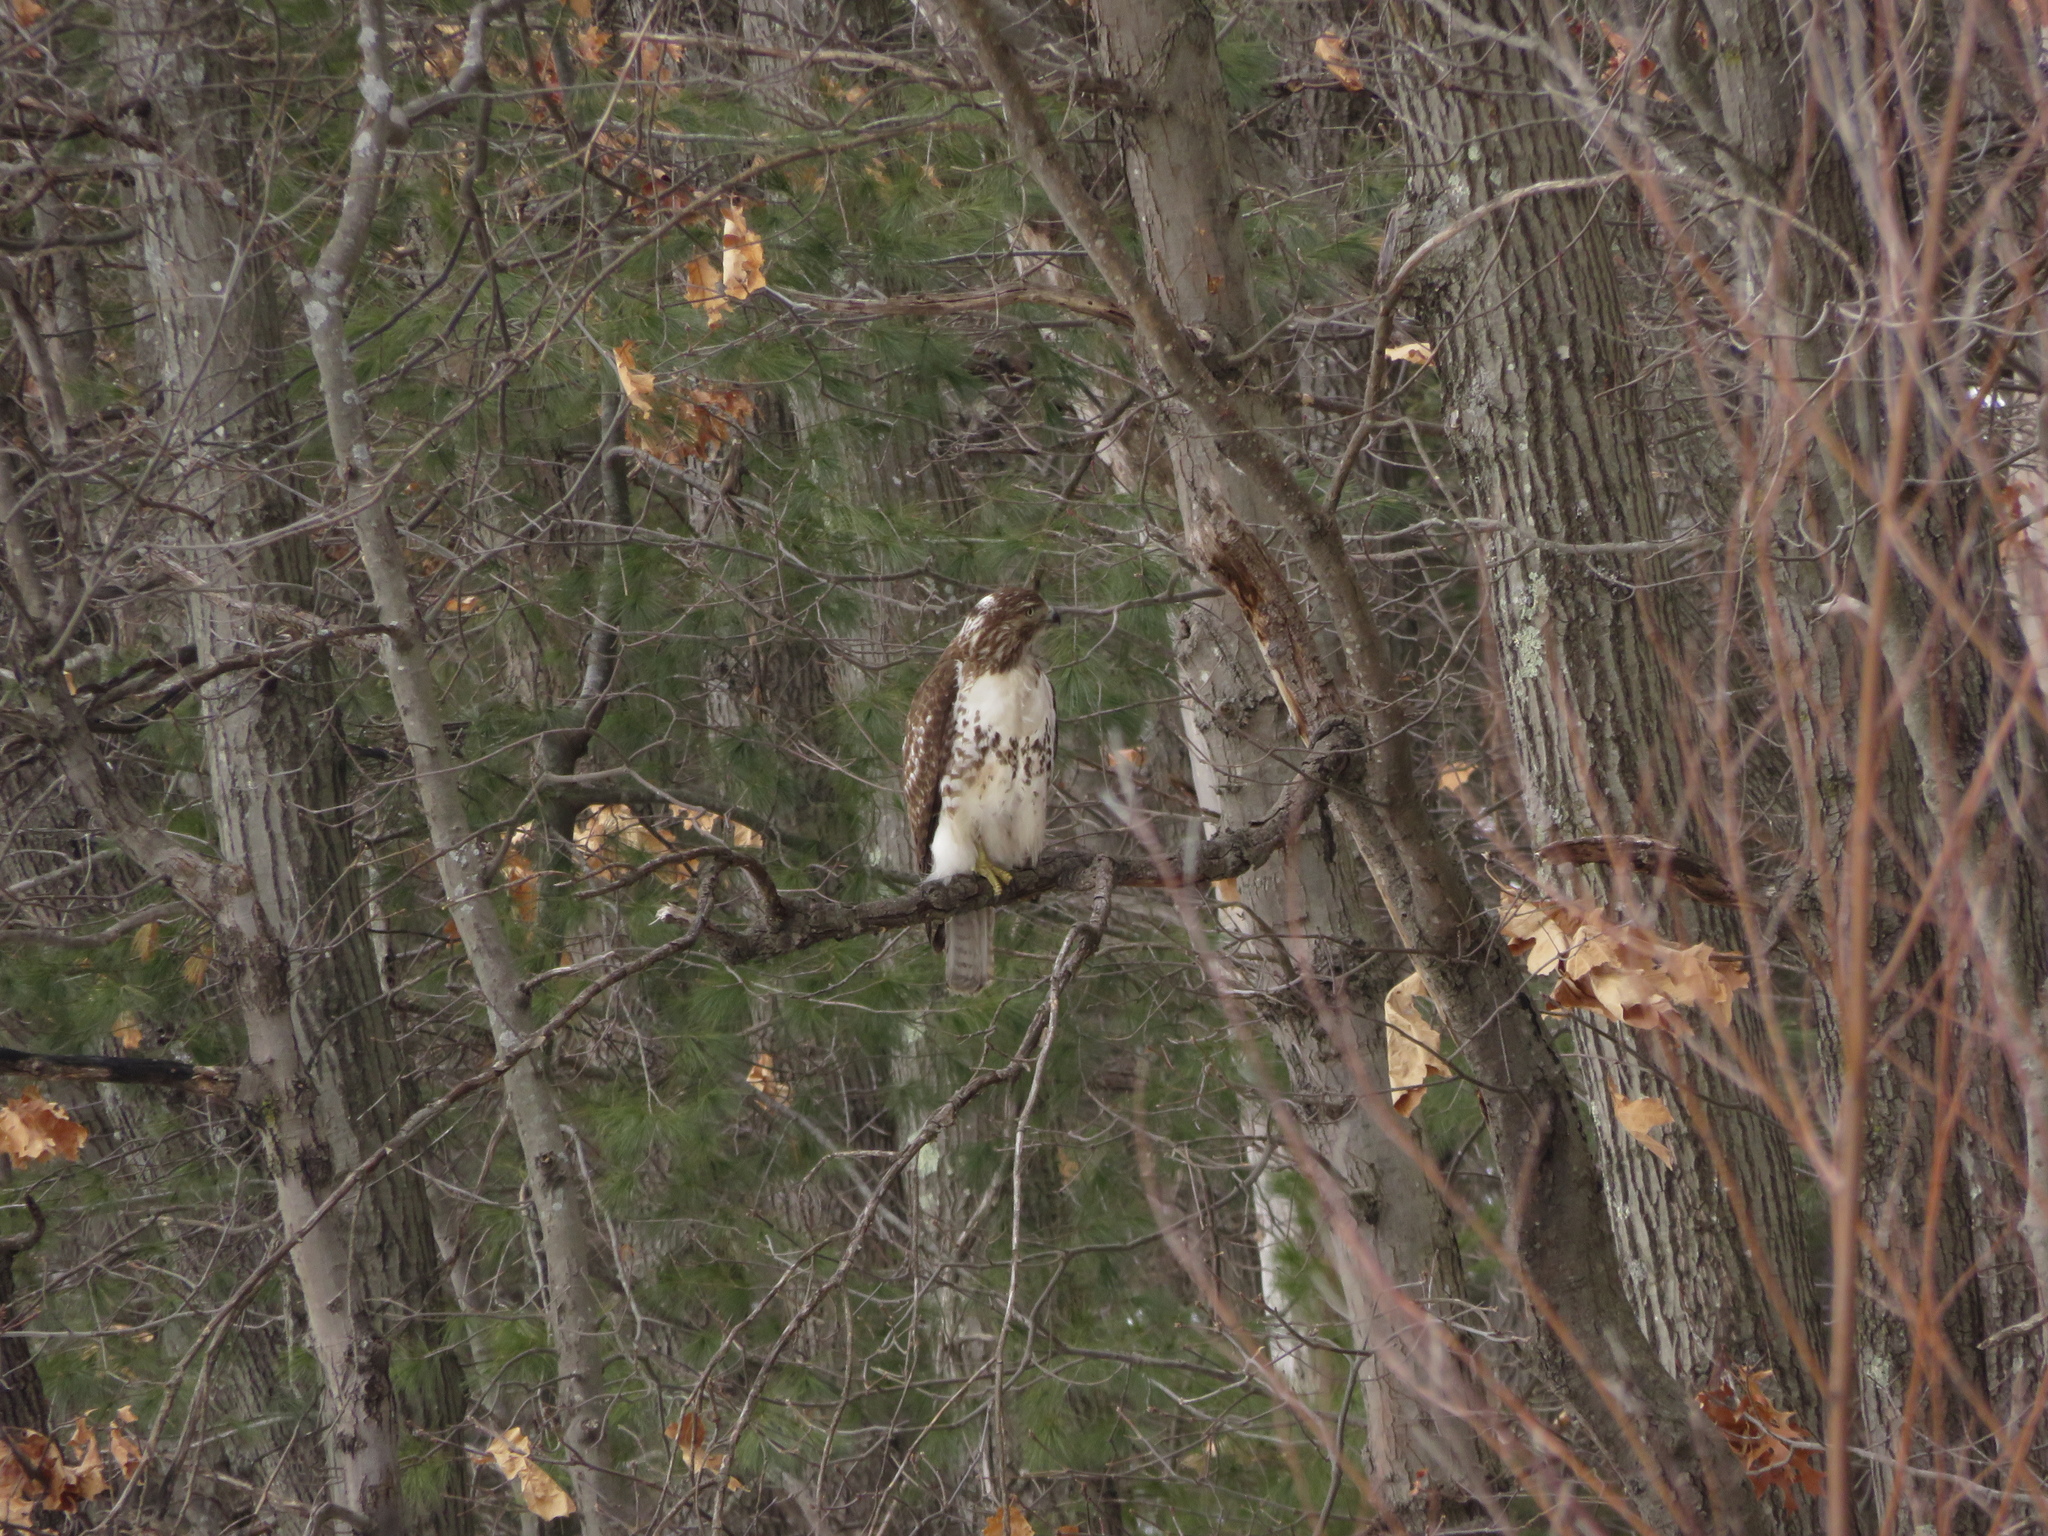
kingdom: Animalia
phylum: Chordata
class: Aves
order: Accipitriformes
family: Accipitridae
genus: Buteo
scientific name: Buteo jamaicensis
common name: Red-tailed hawk
